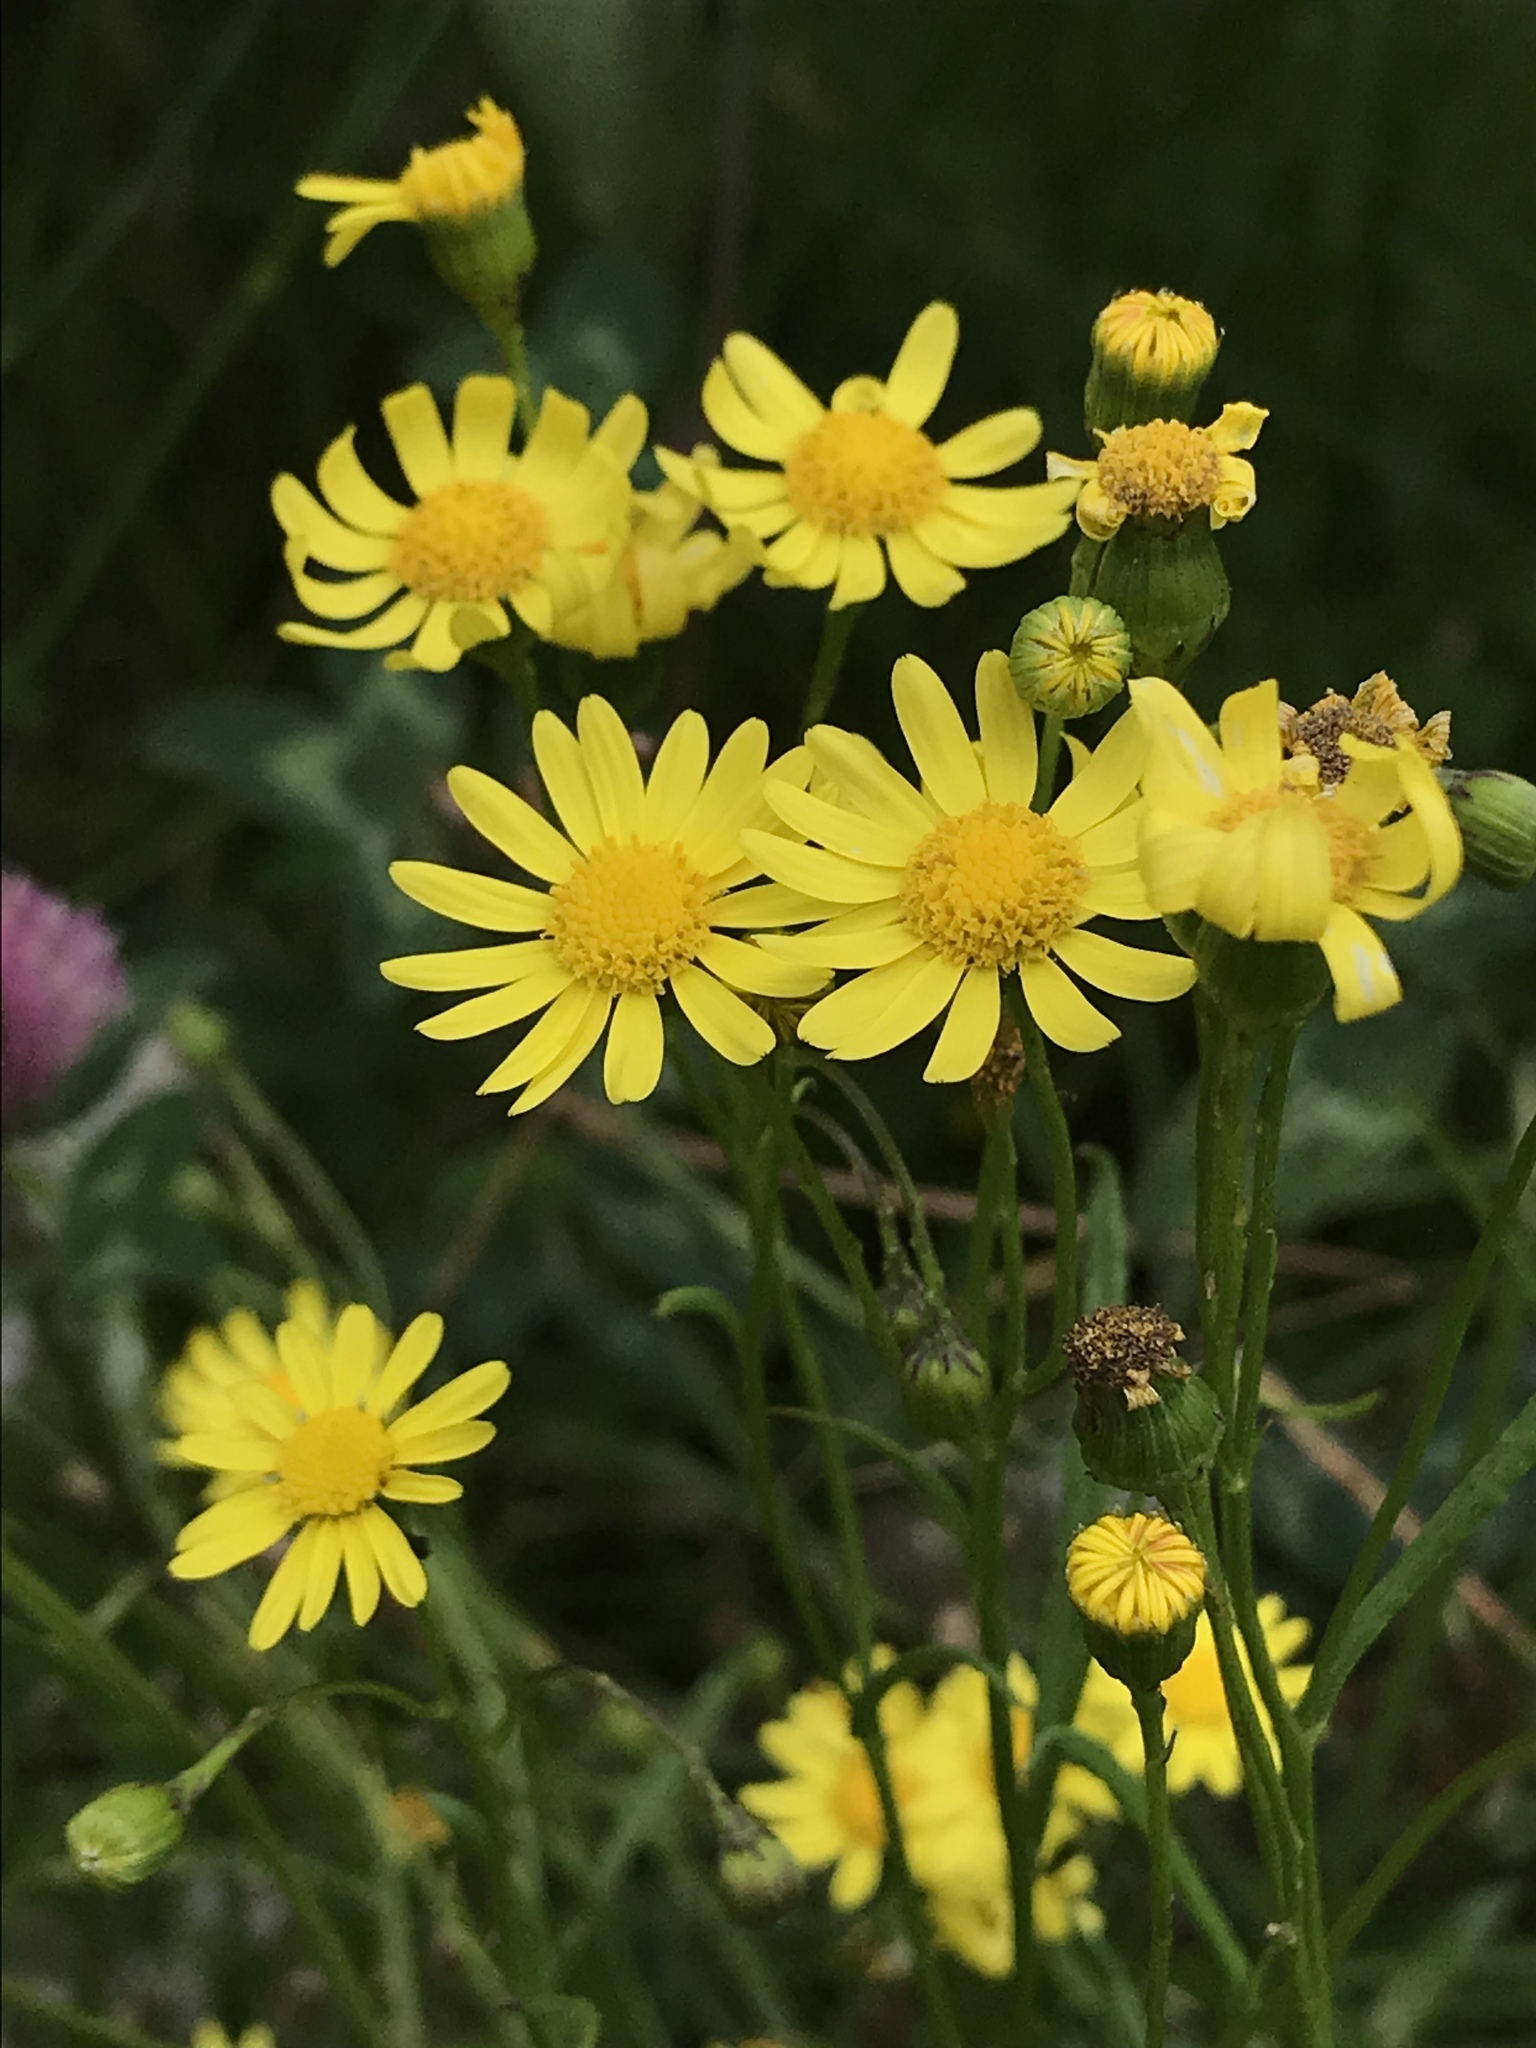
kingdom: Plantae
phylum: Tracheophyta
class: Magnoliopsida
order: Asterales
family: Asteraceae
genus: Senecio
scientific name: Senecio madagascariensis
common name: Madagascar ragwort
